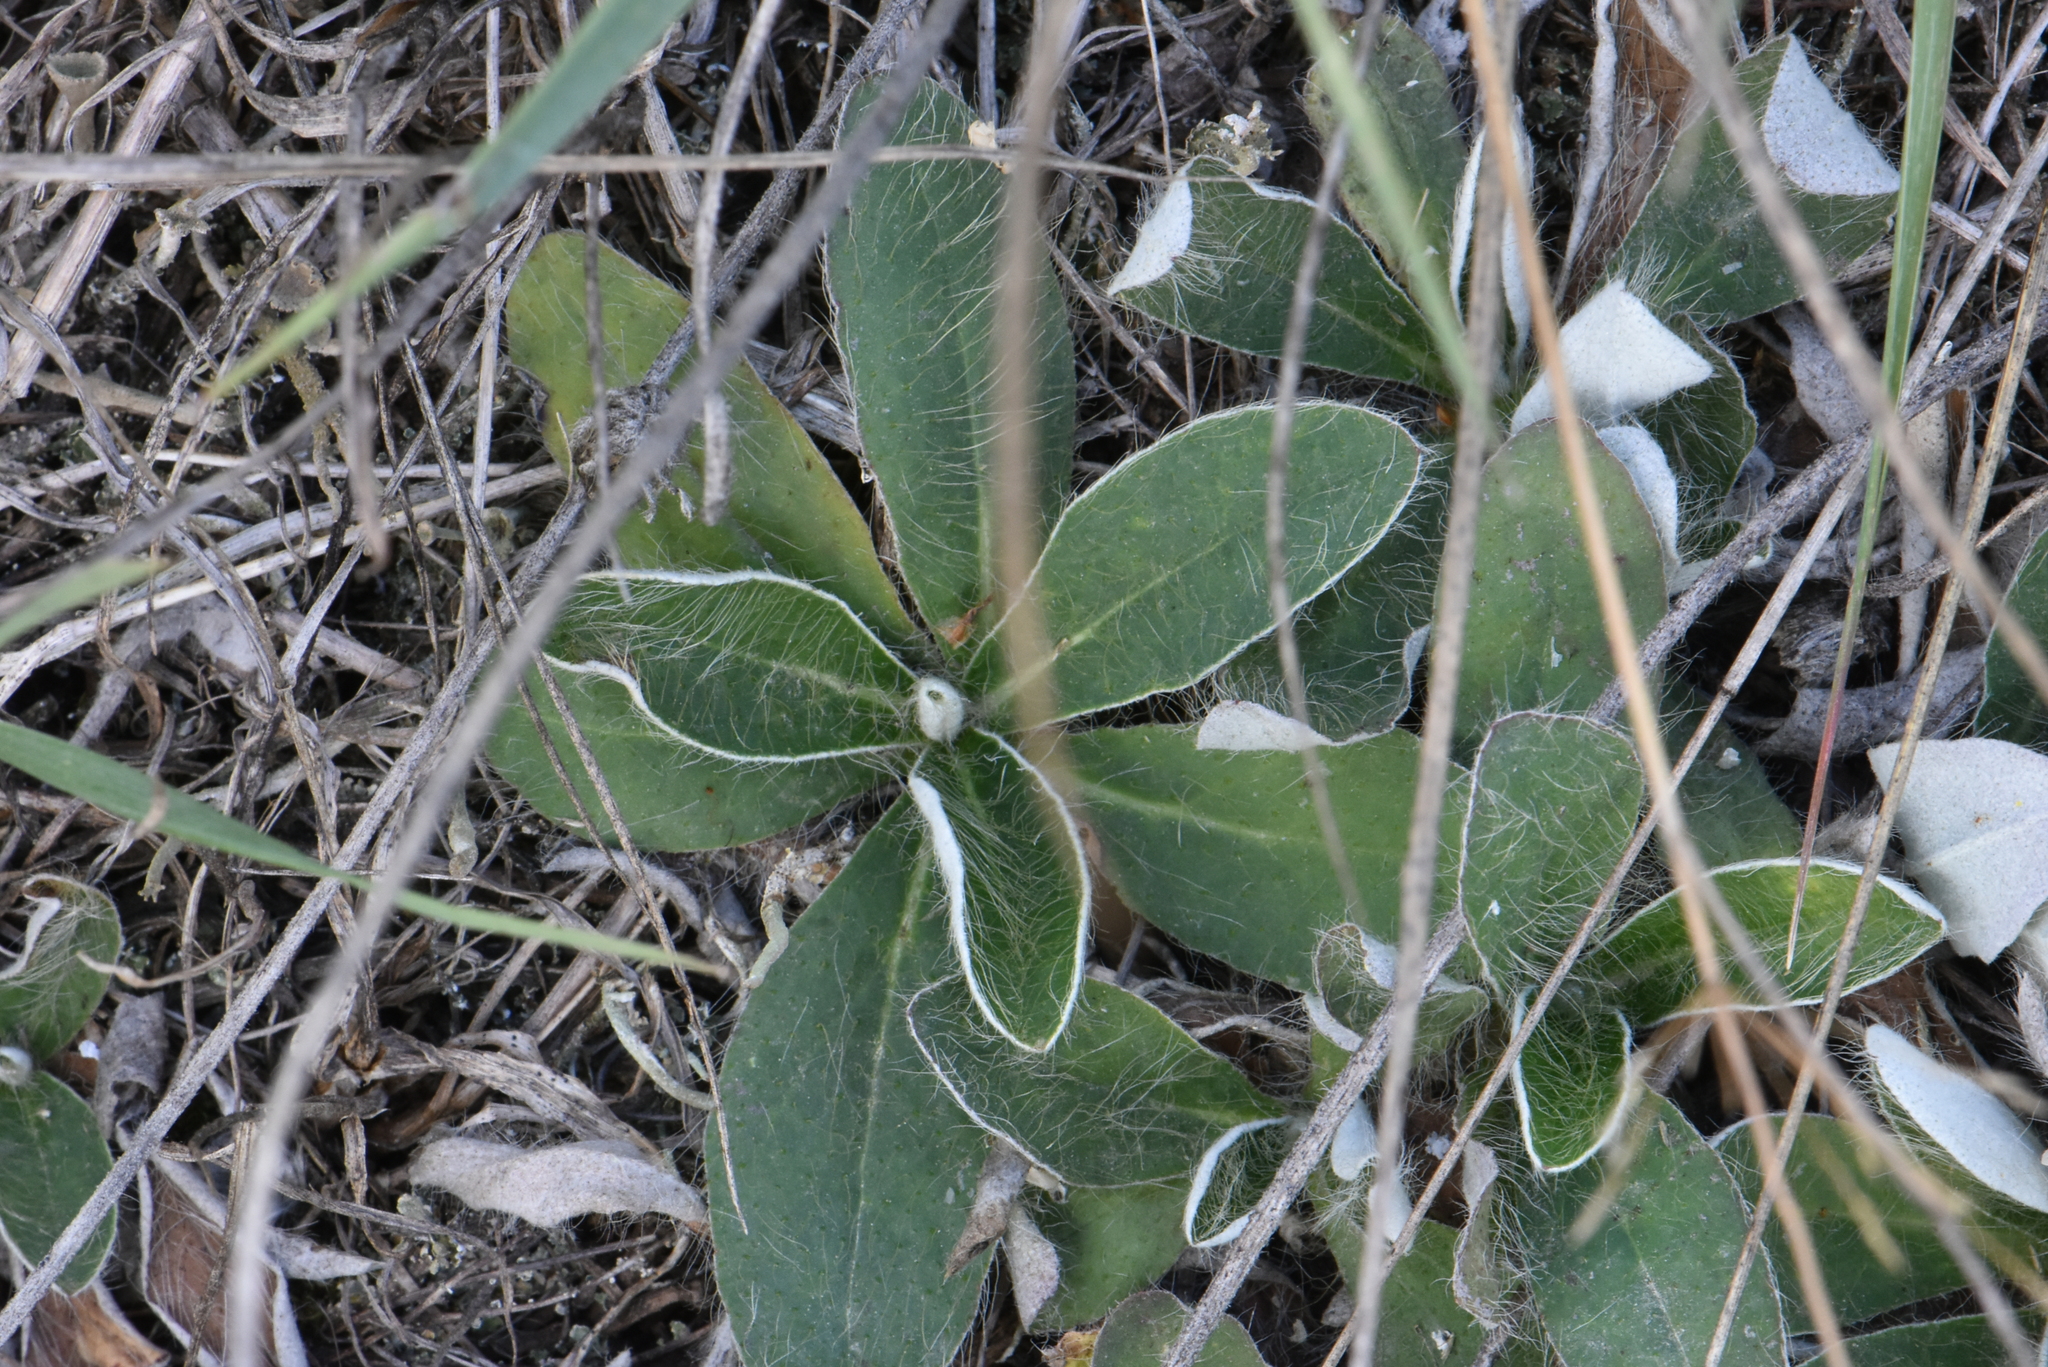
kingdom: Plantae
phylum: Tracheophyta
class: Magnoliopsida
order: Asterales
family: Asteraceae
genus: Pilosella
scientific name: Pilosella officinarum
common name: Mouse-ear hawkweed
